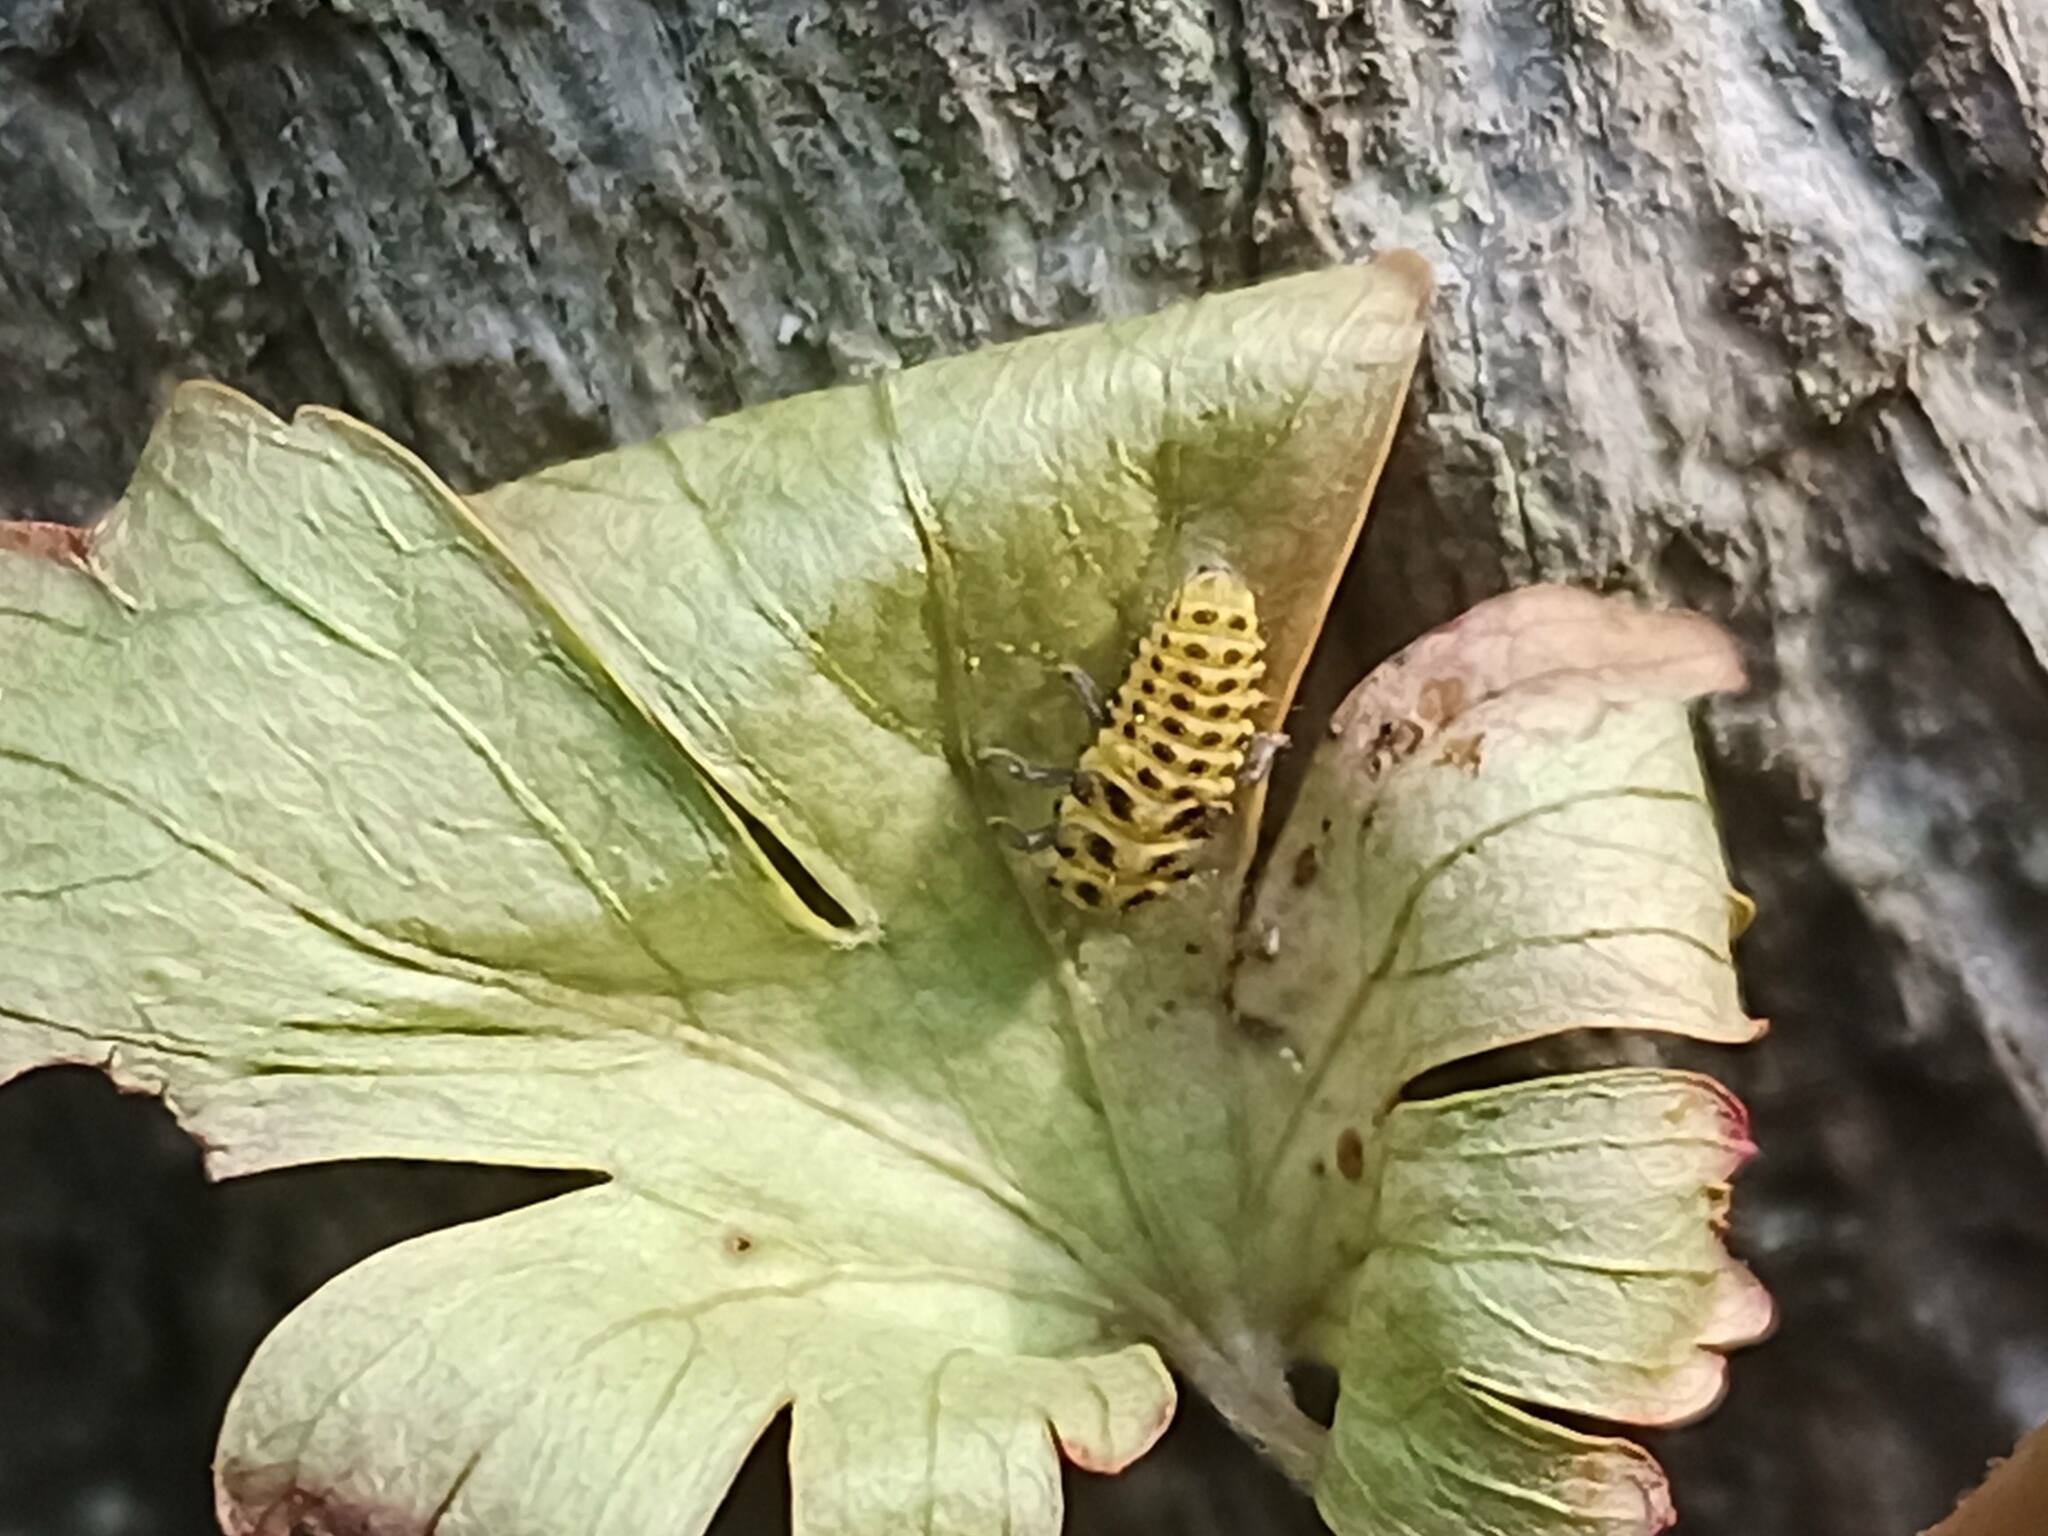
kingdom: Animalia
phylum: Arthropoda
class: Insecta
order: Coleoptera
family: Coccinellidae
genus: Psyllobora
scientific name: Psyllobora vigintiduopunctata
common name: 22-spot ladybird
